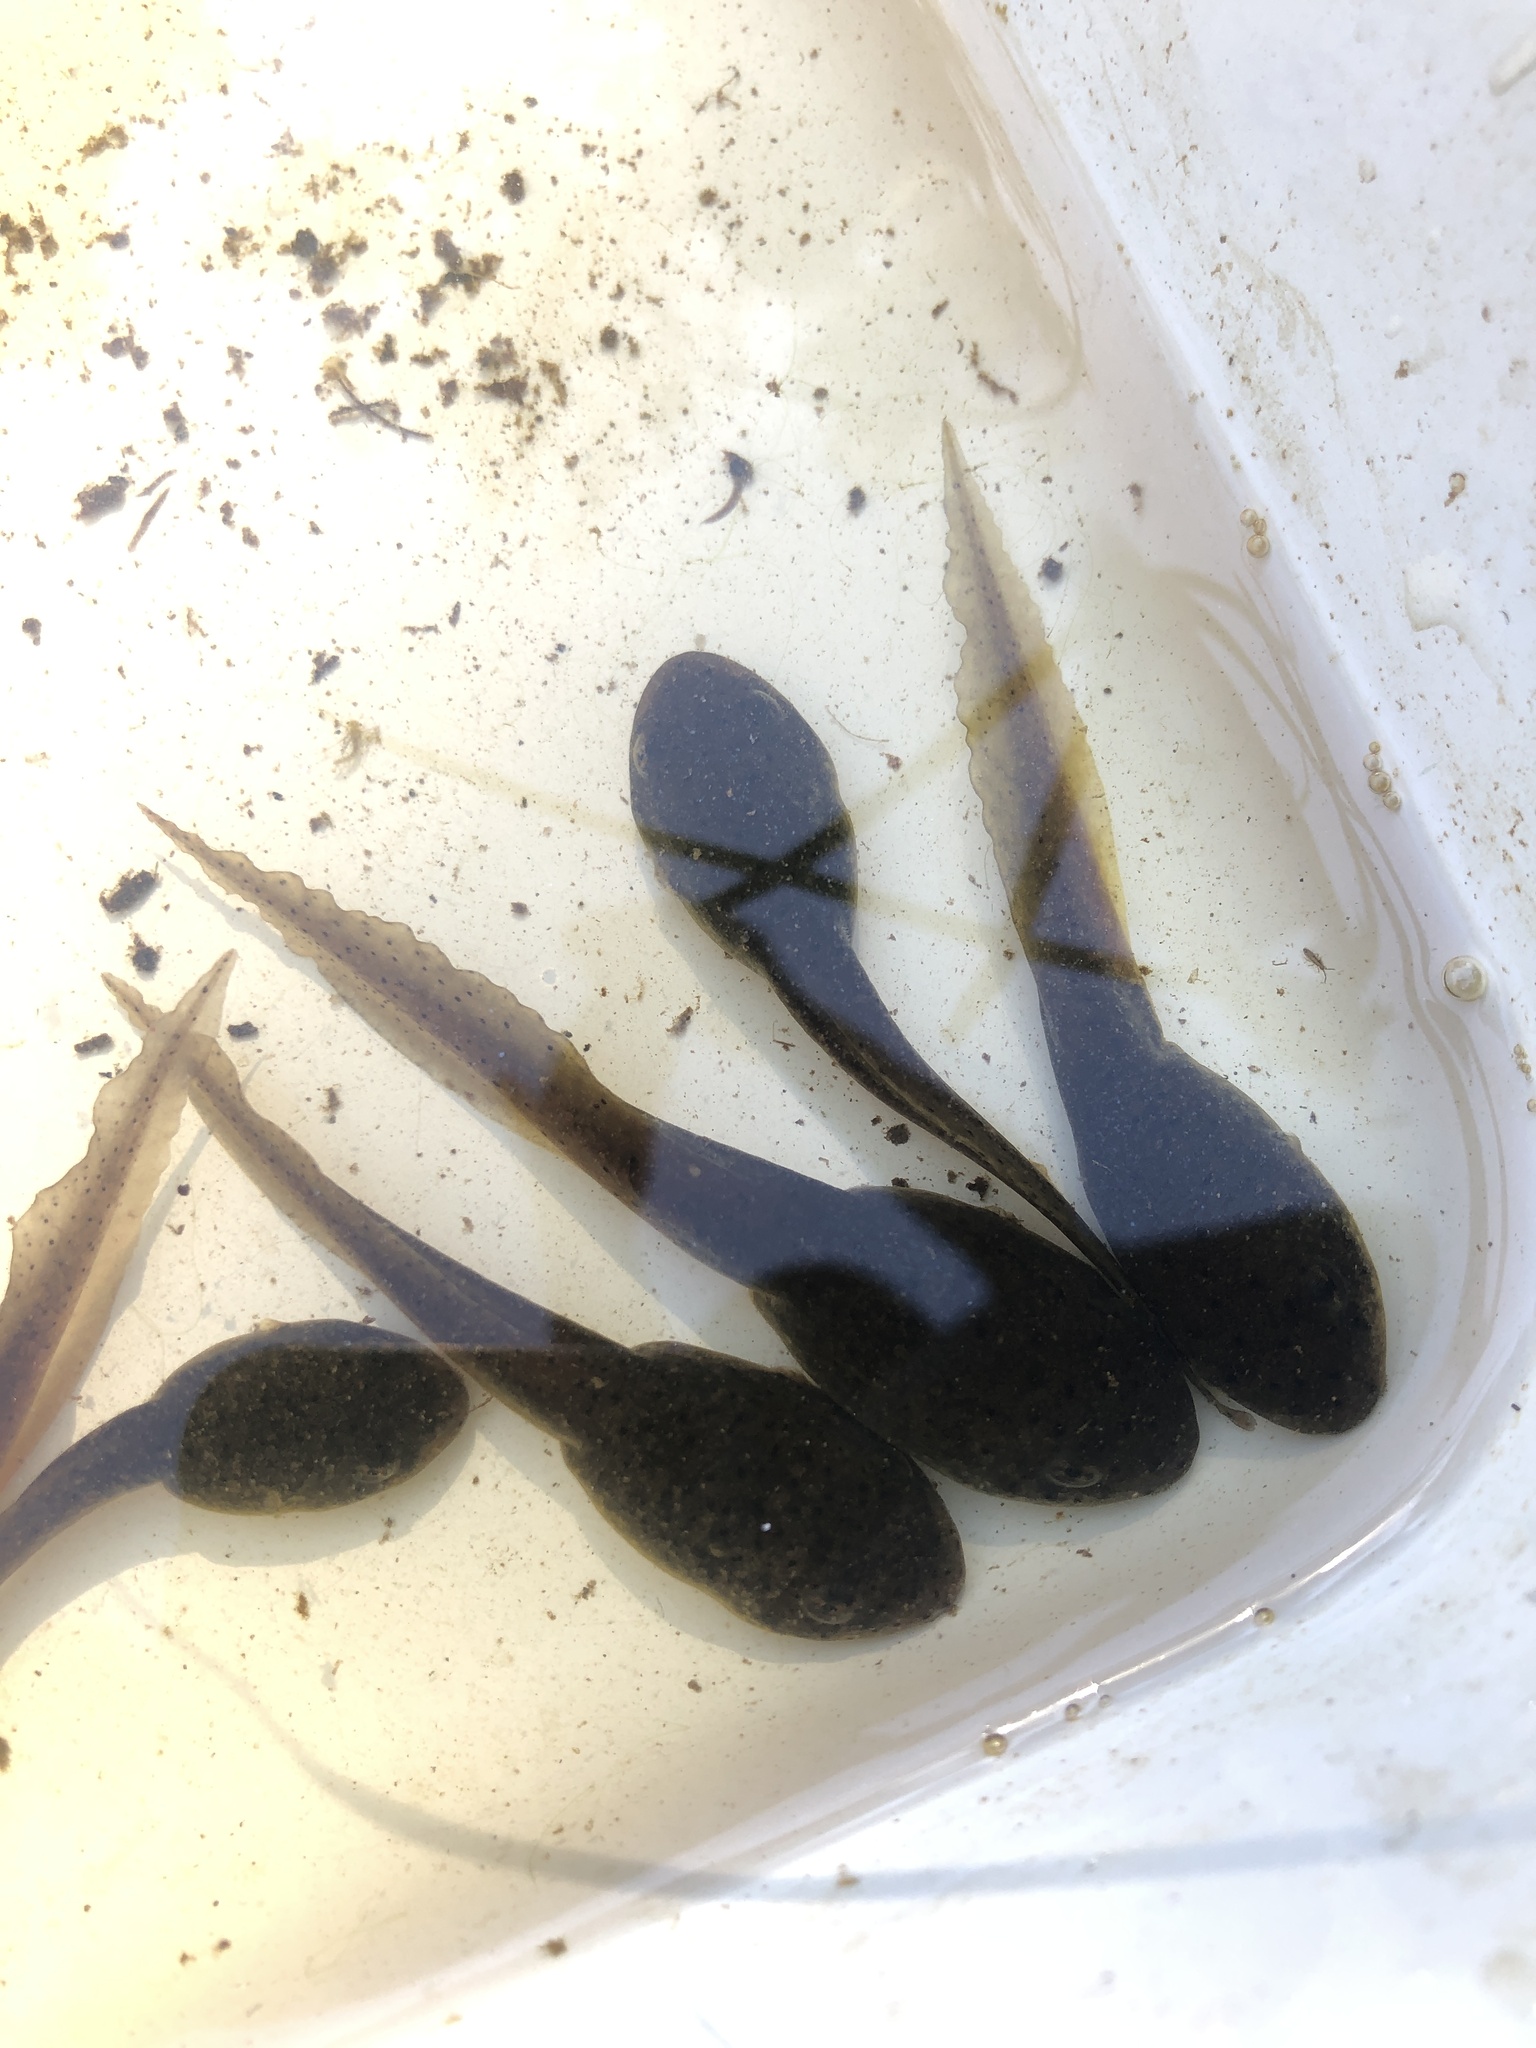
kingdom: Animalia
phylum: Chordata
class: Amphibia
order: Anura
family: Ranidae
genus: Lithobates
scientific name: Lithobates catesbeianus
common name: American bullfrog
